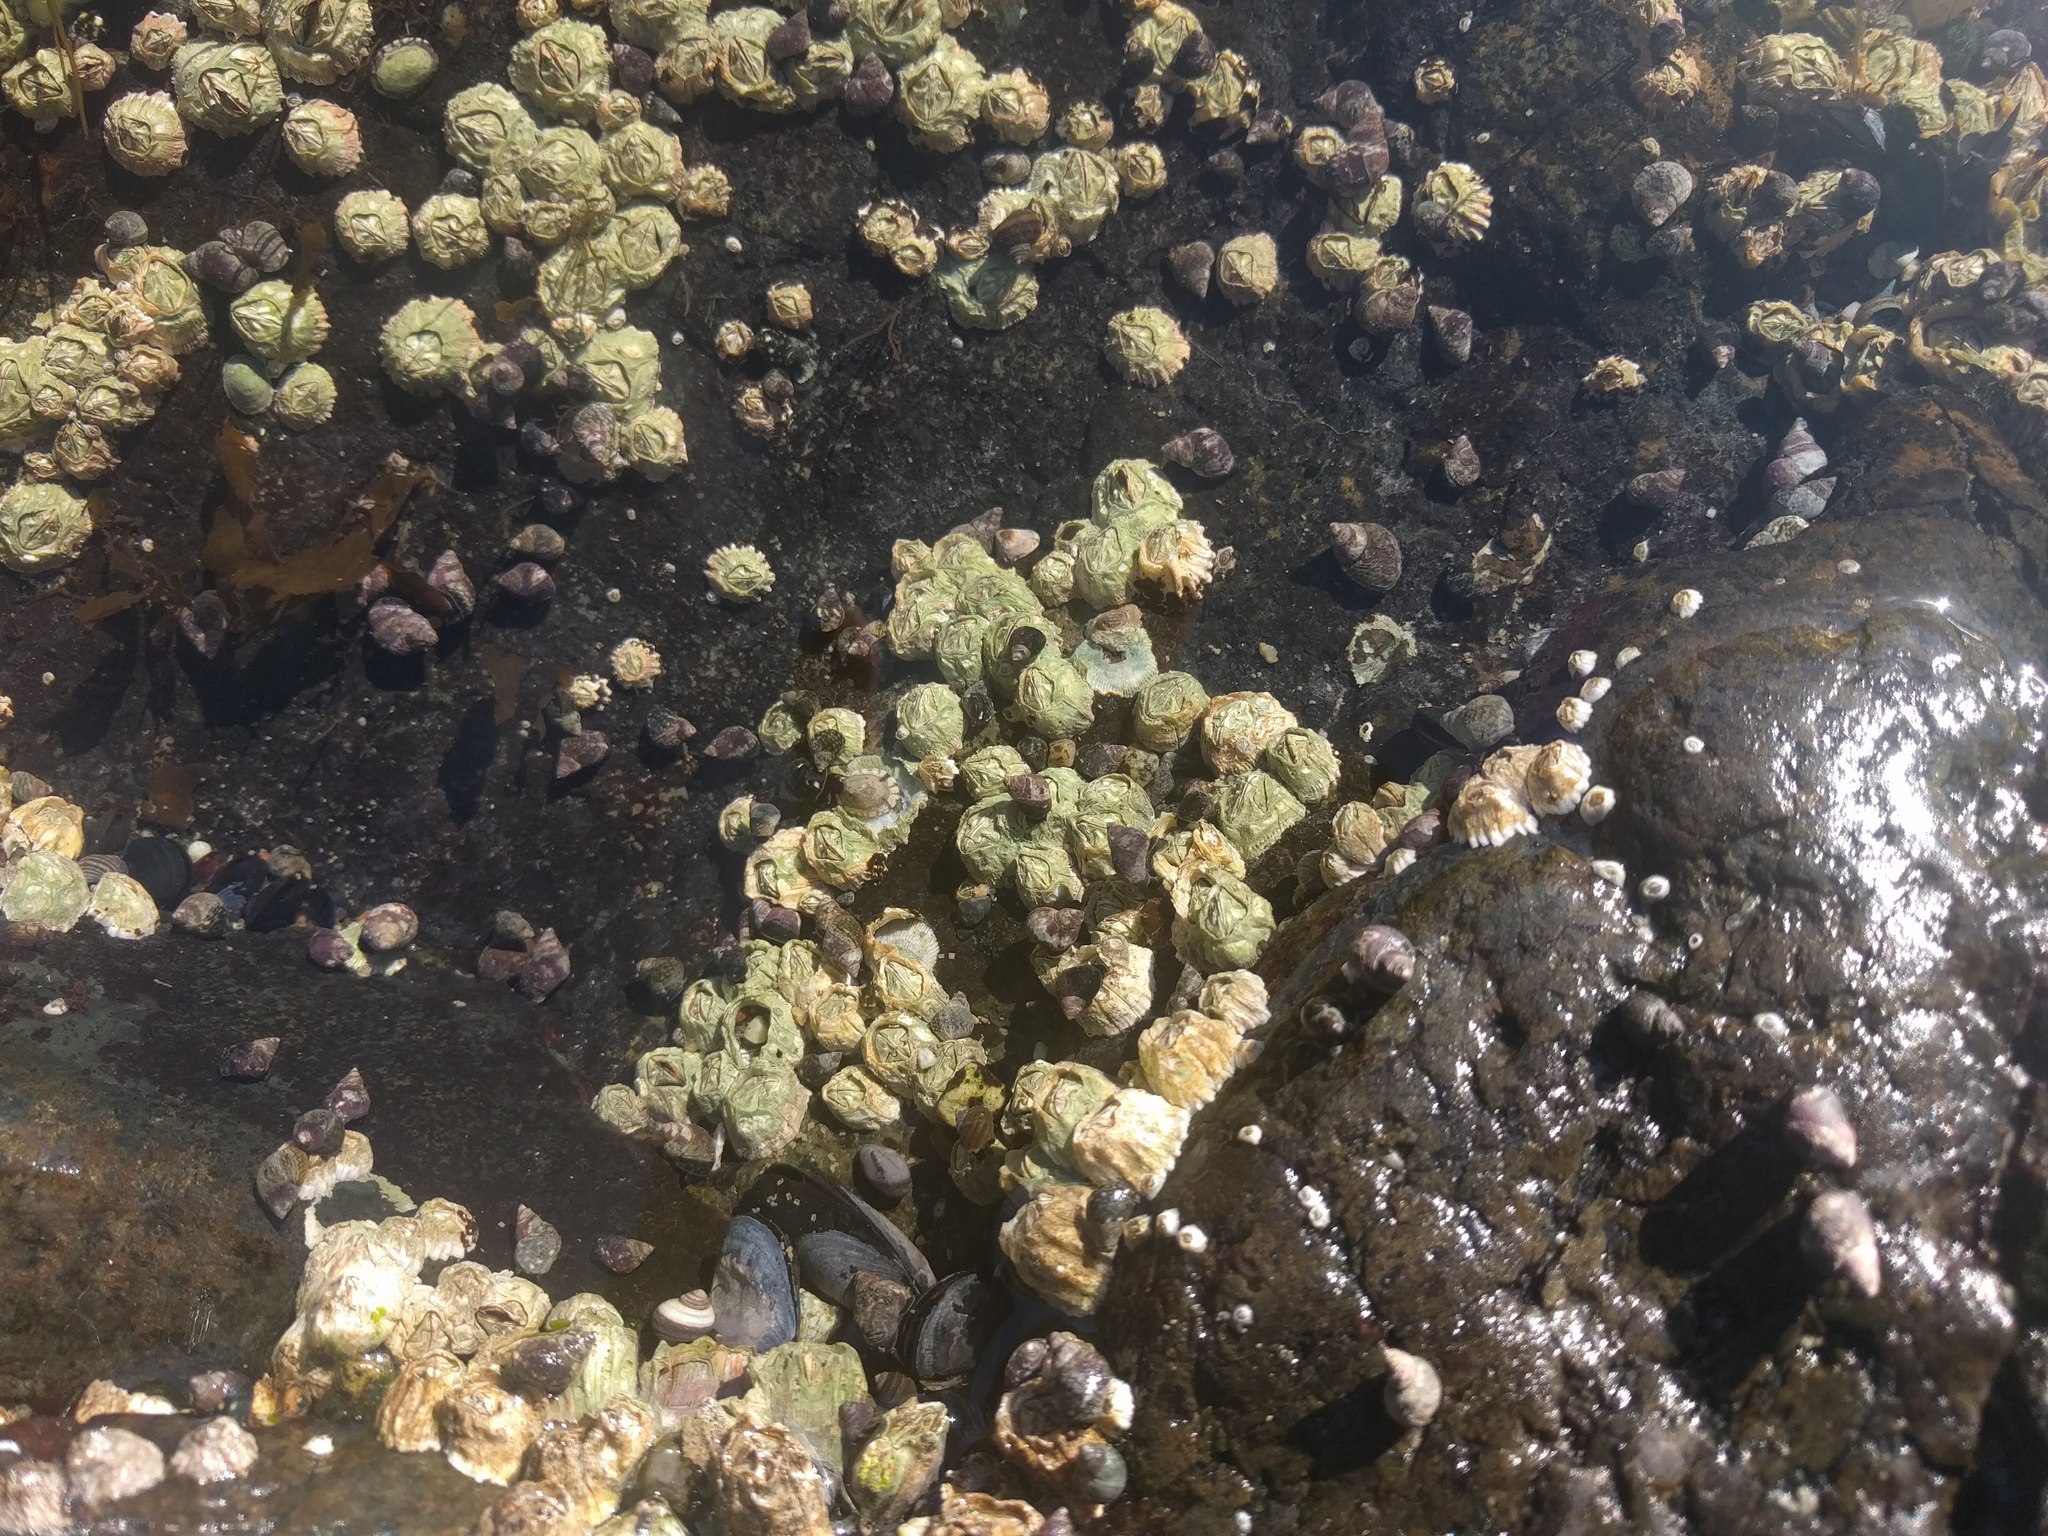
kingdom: Animalia
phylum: Arthropoda
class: Maxillopoda
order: Sessilia
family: Balanidae
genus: Balanus
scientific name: Balanus glandula
